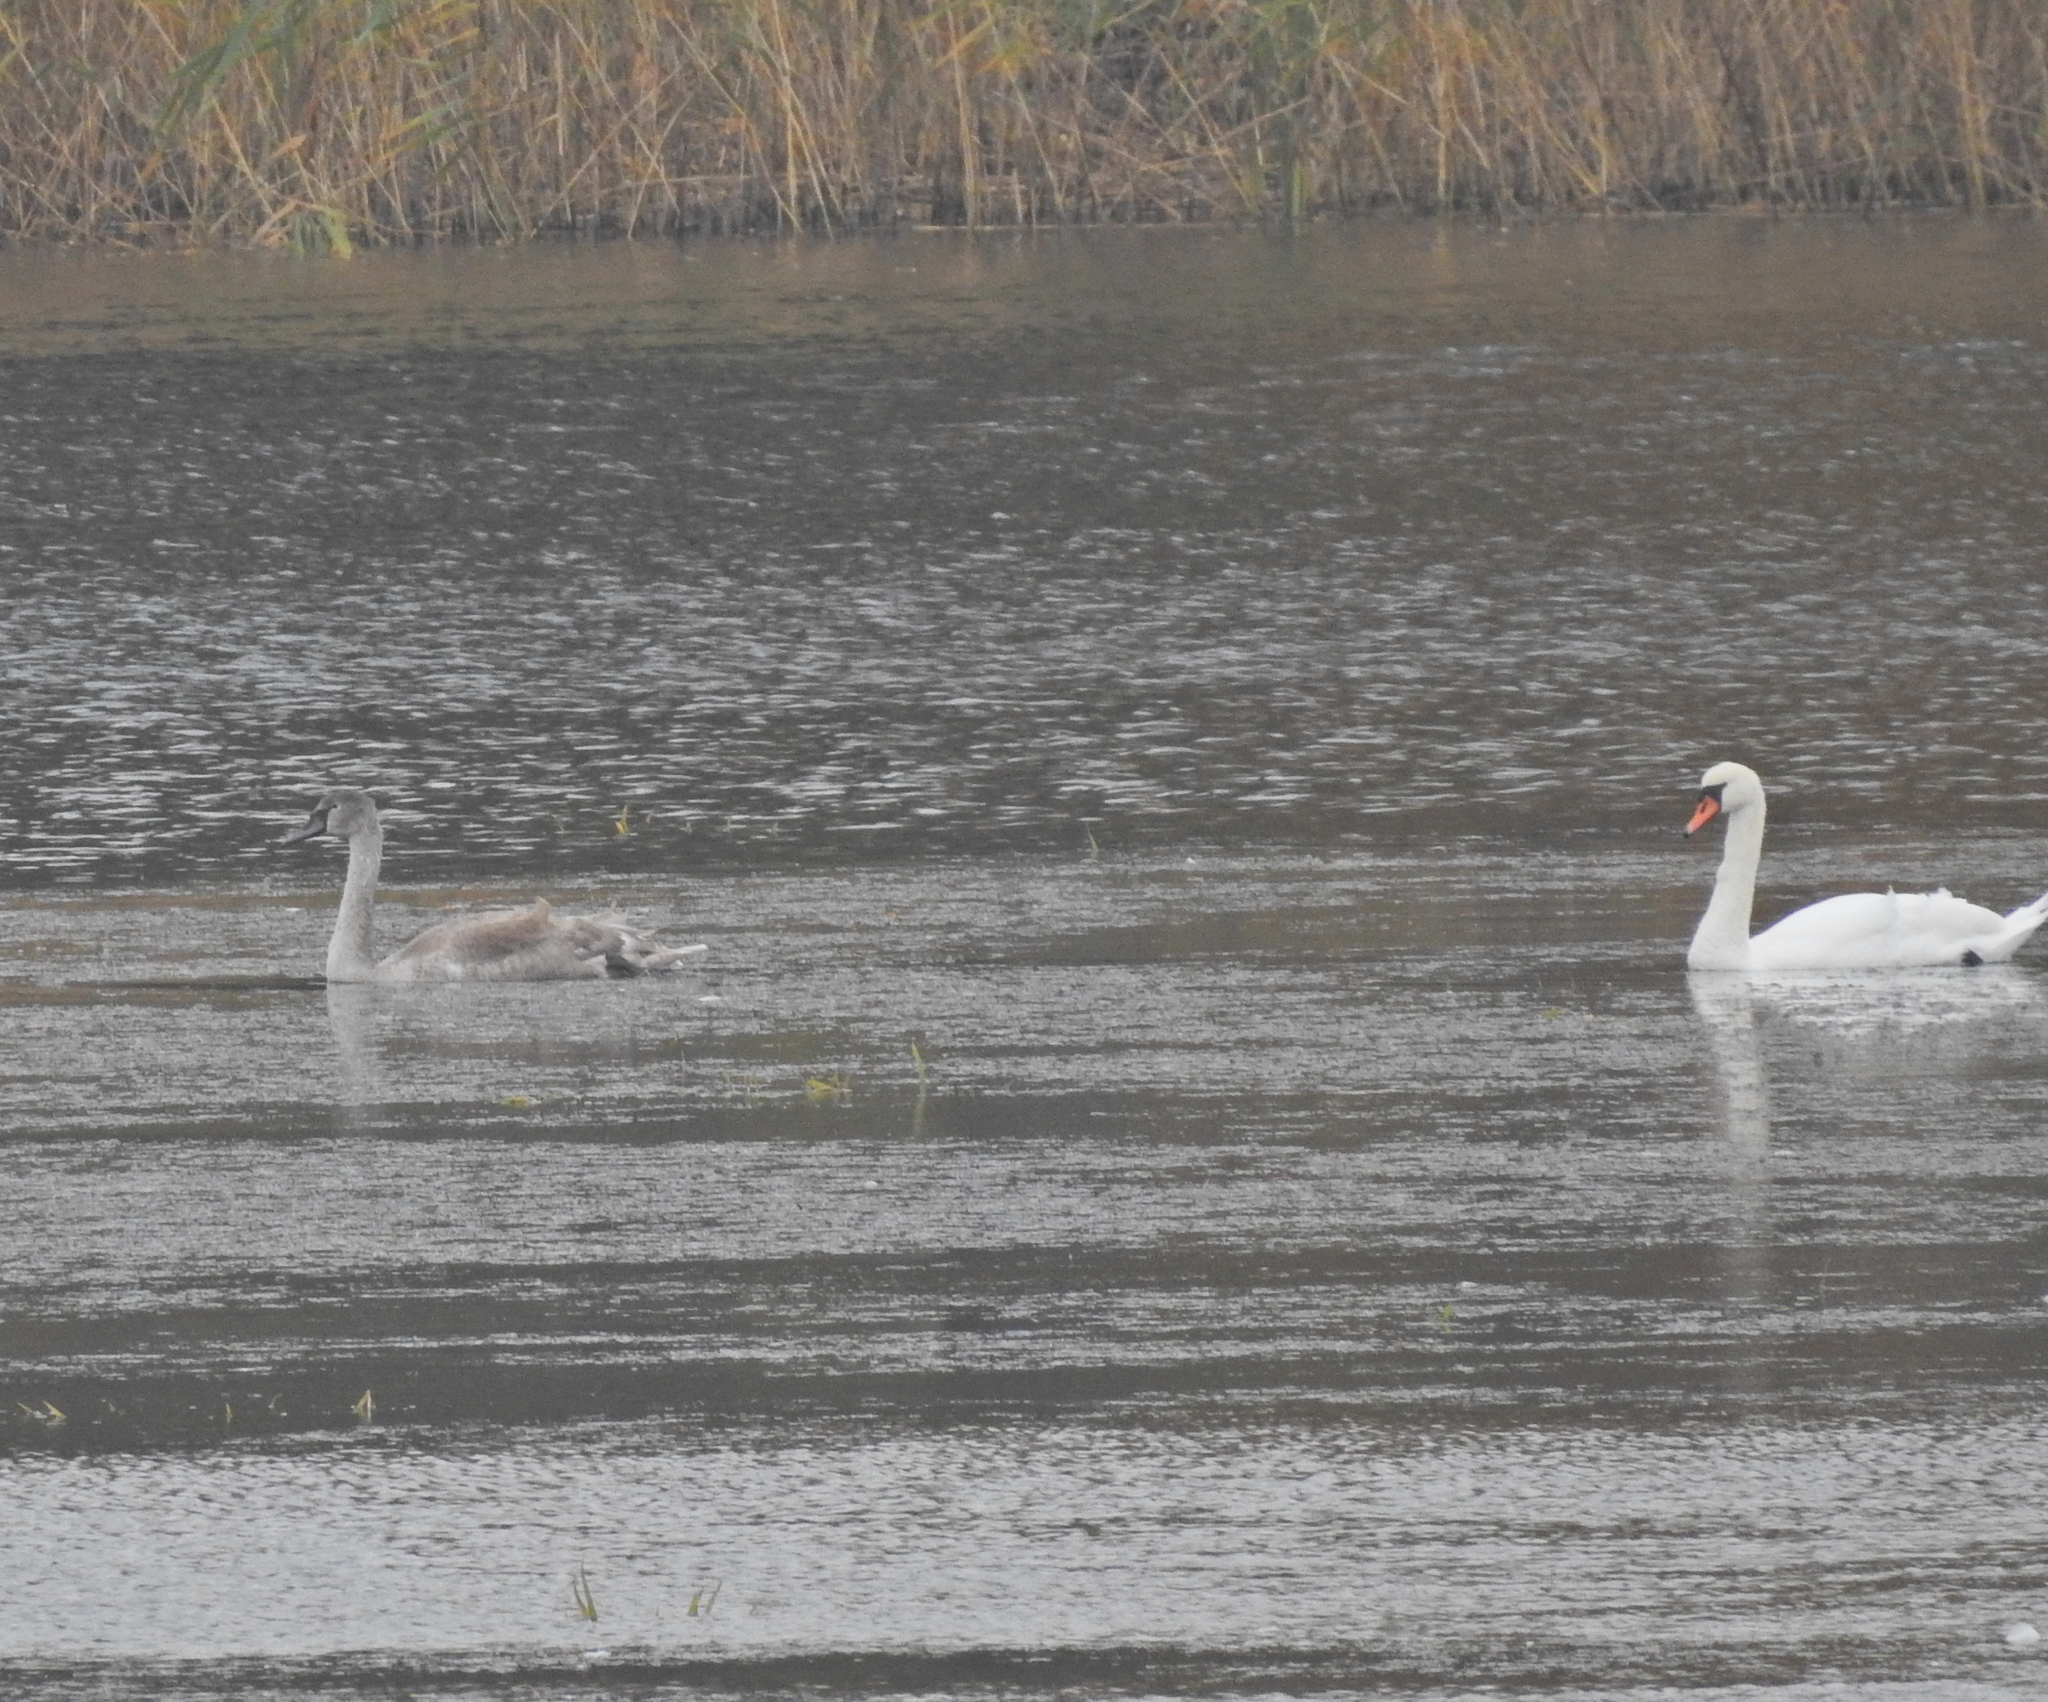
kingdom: Animalia
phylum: Chordata
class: Aves
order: Anseriformes
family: Anatidae
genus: Cygnus
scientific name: Cygnus olor
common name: Mute swan
